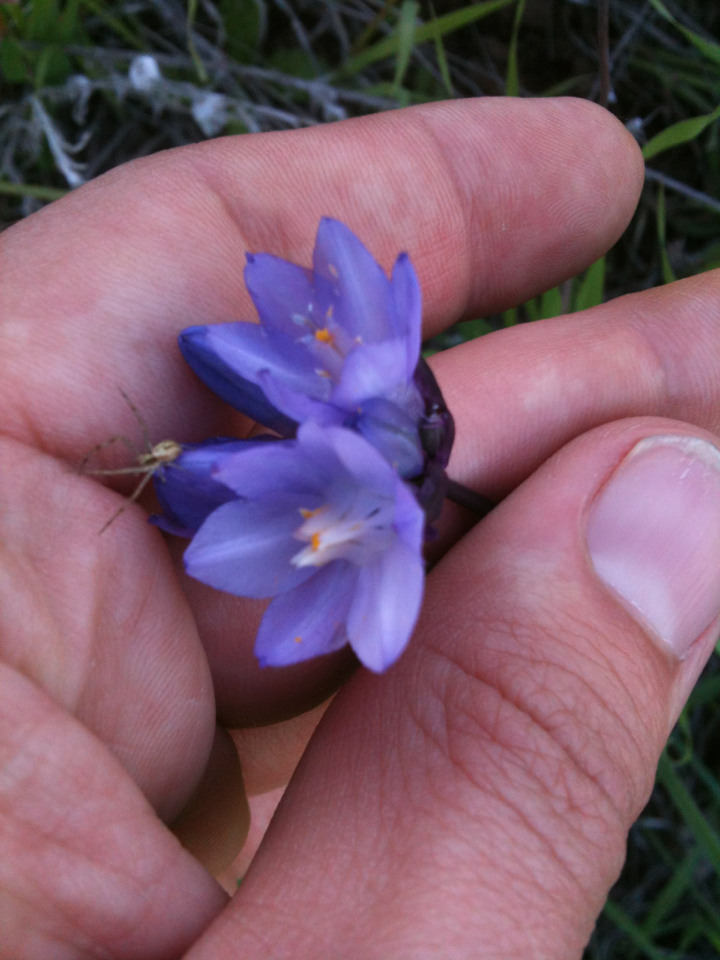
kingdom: Plantae
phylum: Tracheophyta
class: Liliopsida
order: Asparagales
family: Asparagaceae
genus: Dipterostemon
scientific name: Dipterostemon capitatus
